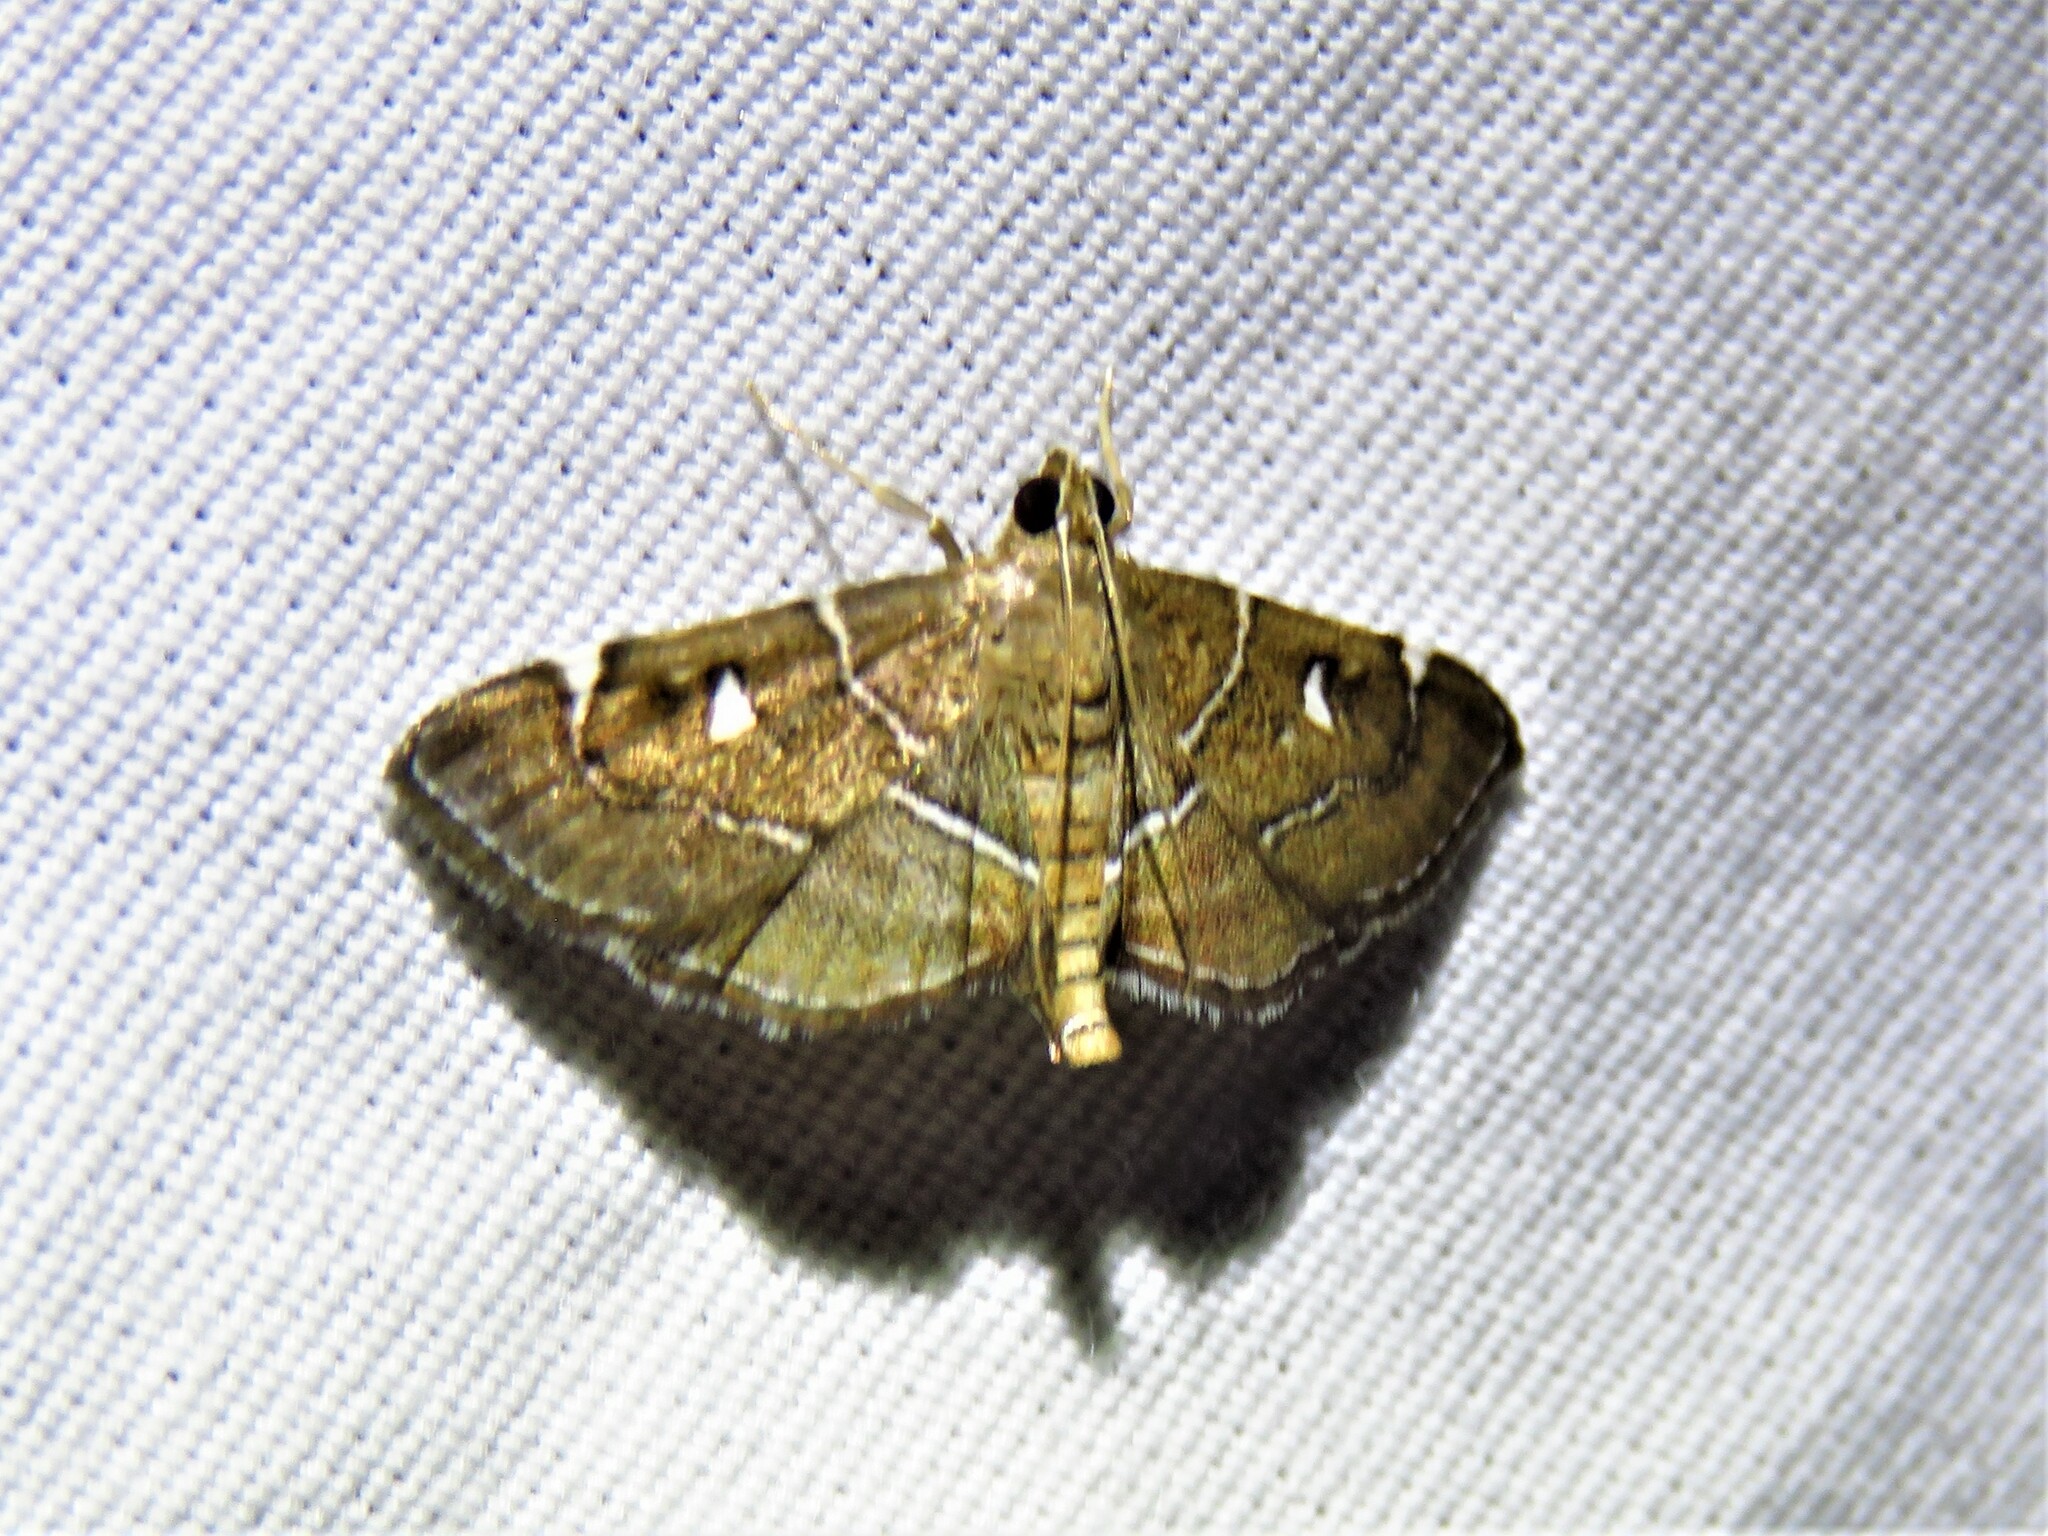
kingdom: Animalia
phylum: Arthropoda
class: Insecta
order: Lepidoptera
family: Crambidae
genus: Lamprosema
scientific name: Lamprosema victoriae
